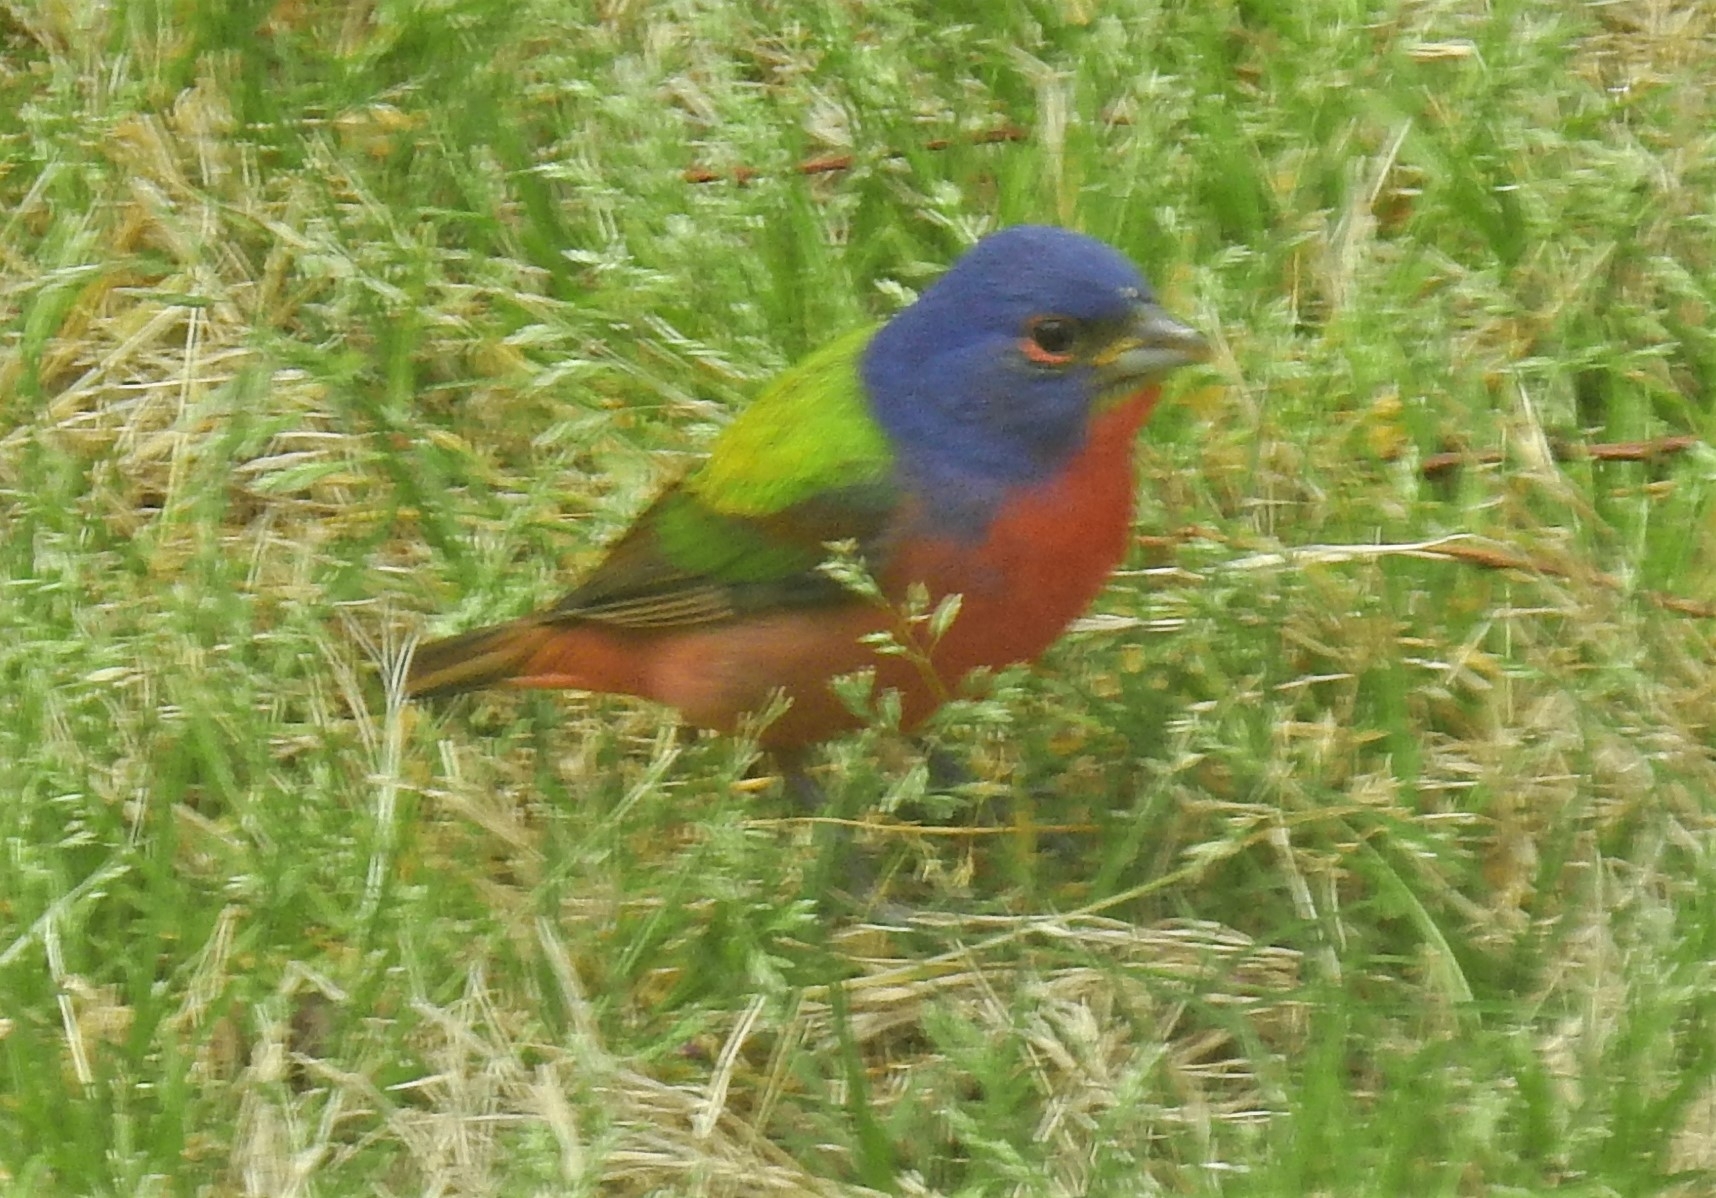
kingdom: Animalia
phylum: Chordata
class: Aves
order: Passeriformes
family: Cardinalidae
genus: Passerina
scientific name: Passerina ciris
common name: Painted bunting
